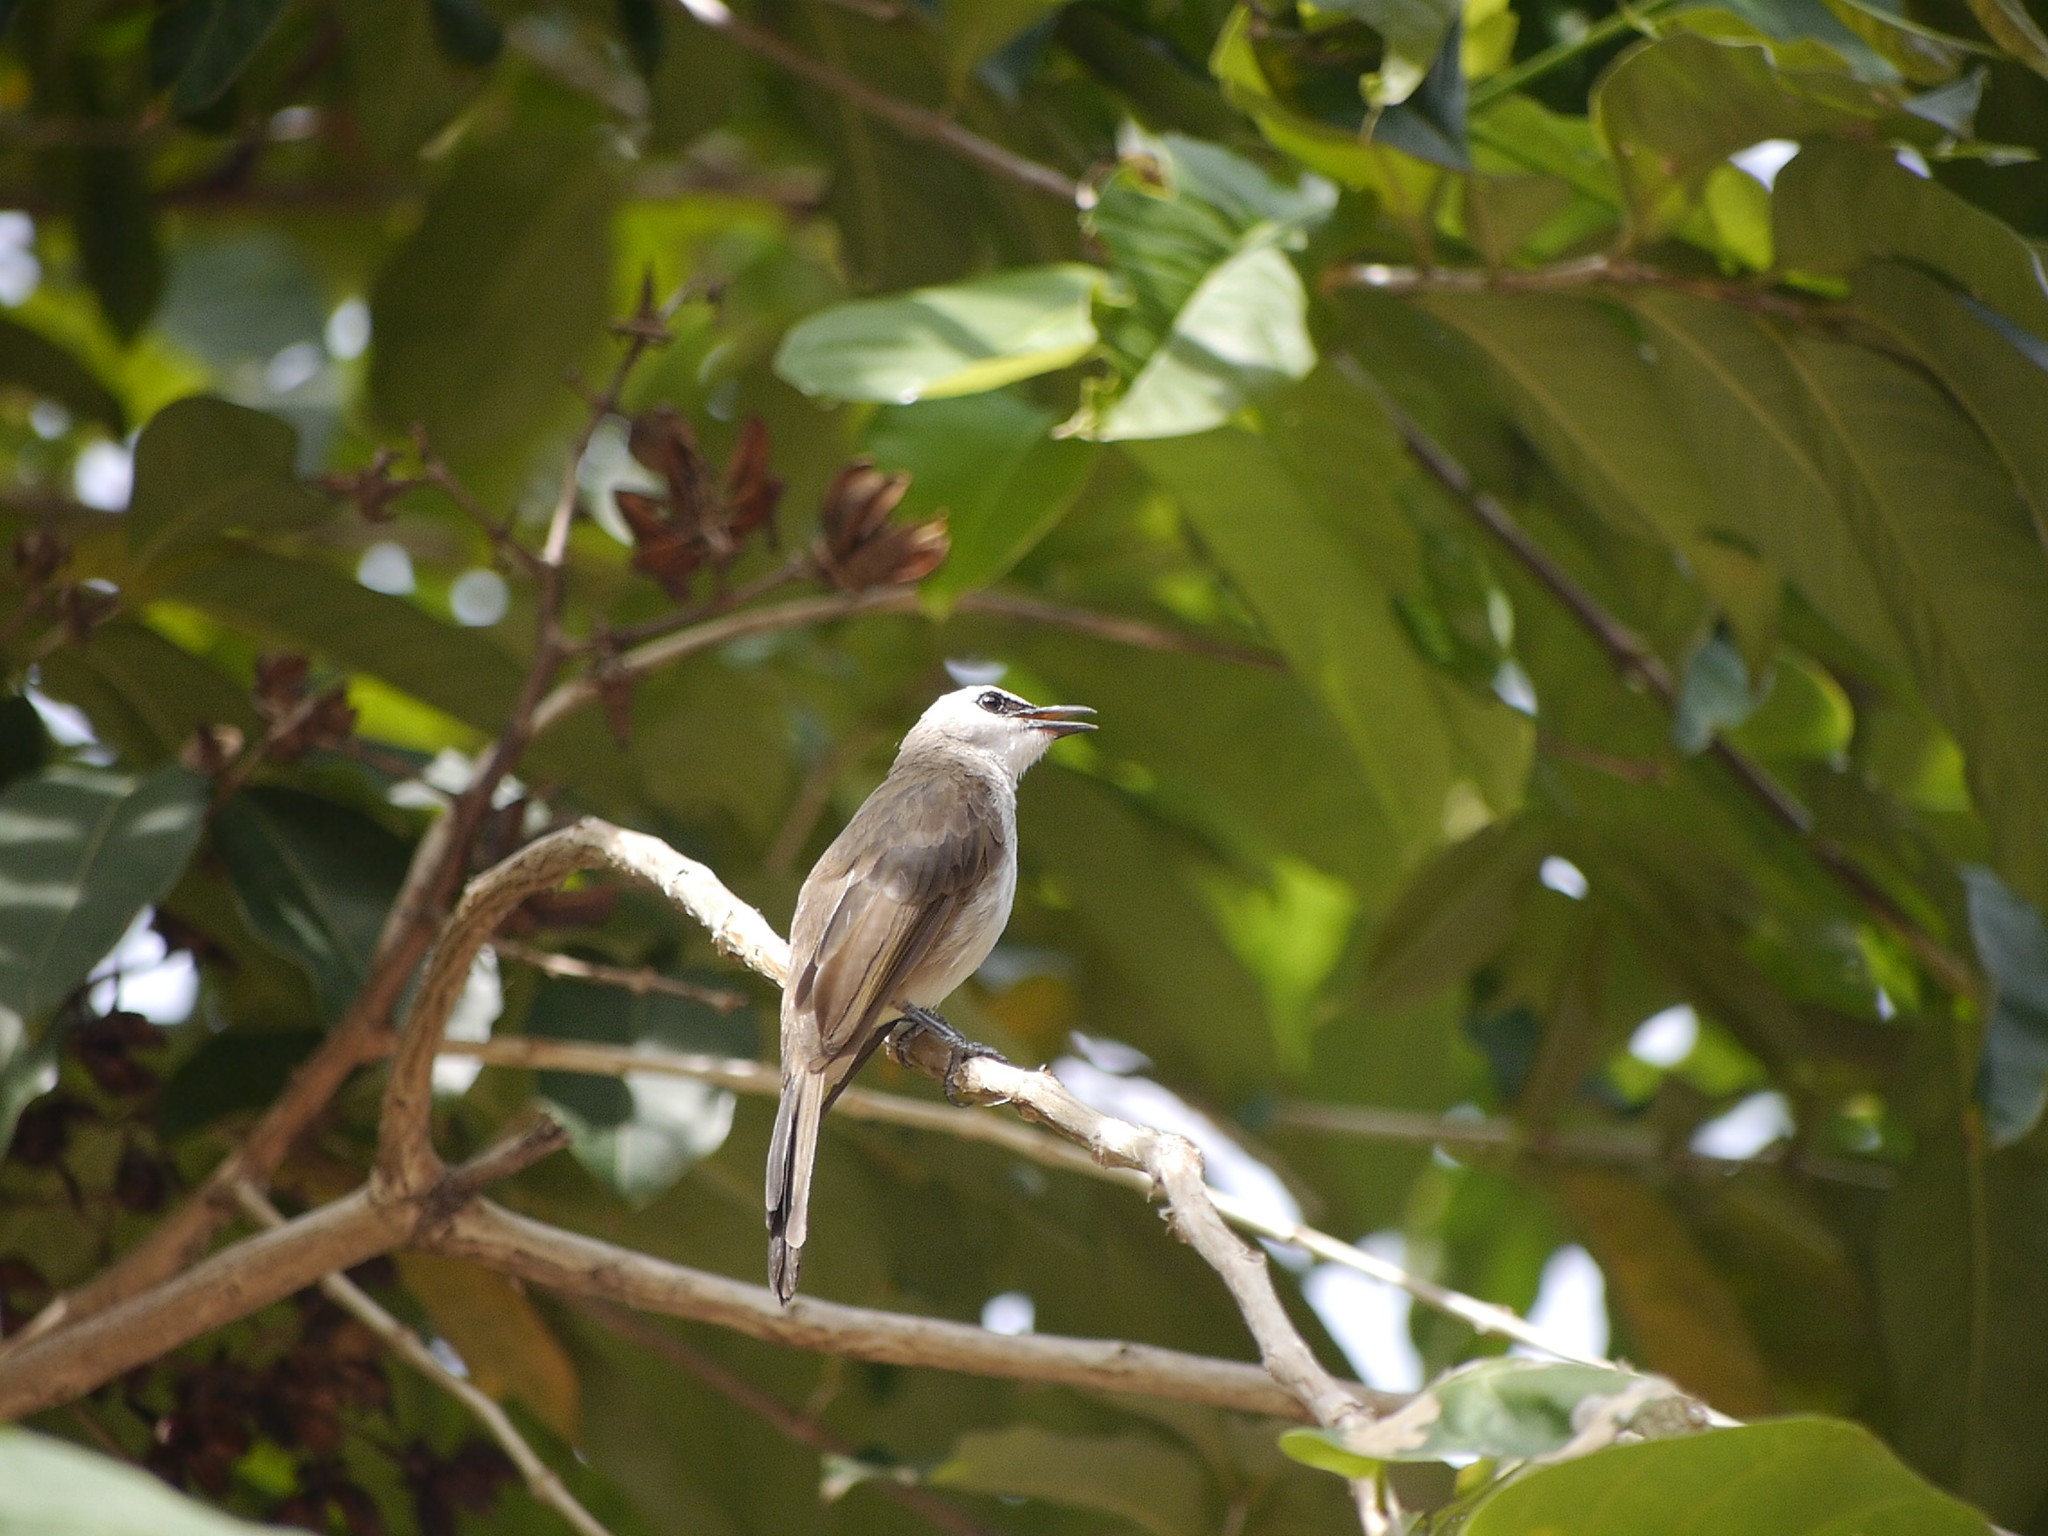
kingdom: Animalia
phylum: Chordata
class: Aves
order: Passeriformes
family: Pycnonotidae
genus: Pycnonotus
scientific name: Pycnonotus goiavier
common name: Yellow-vented bulbul
